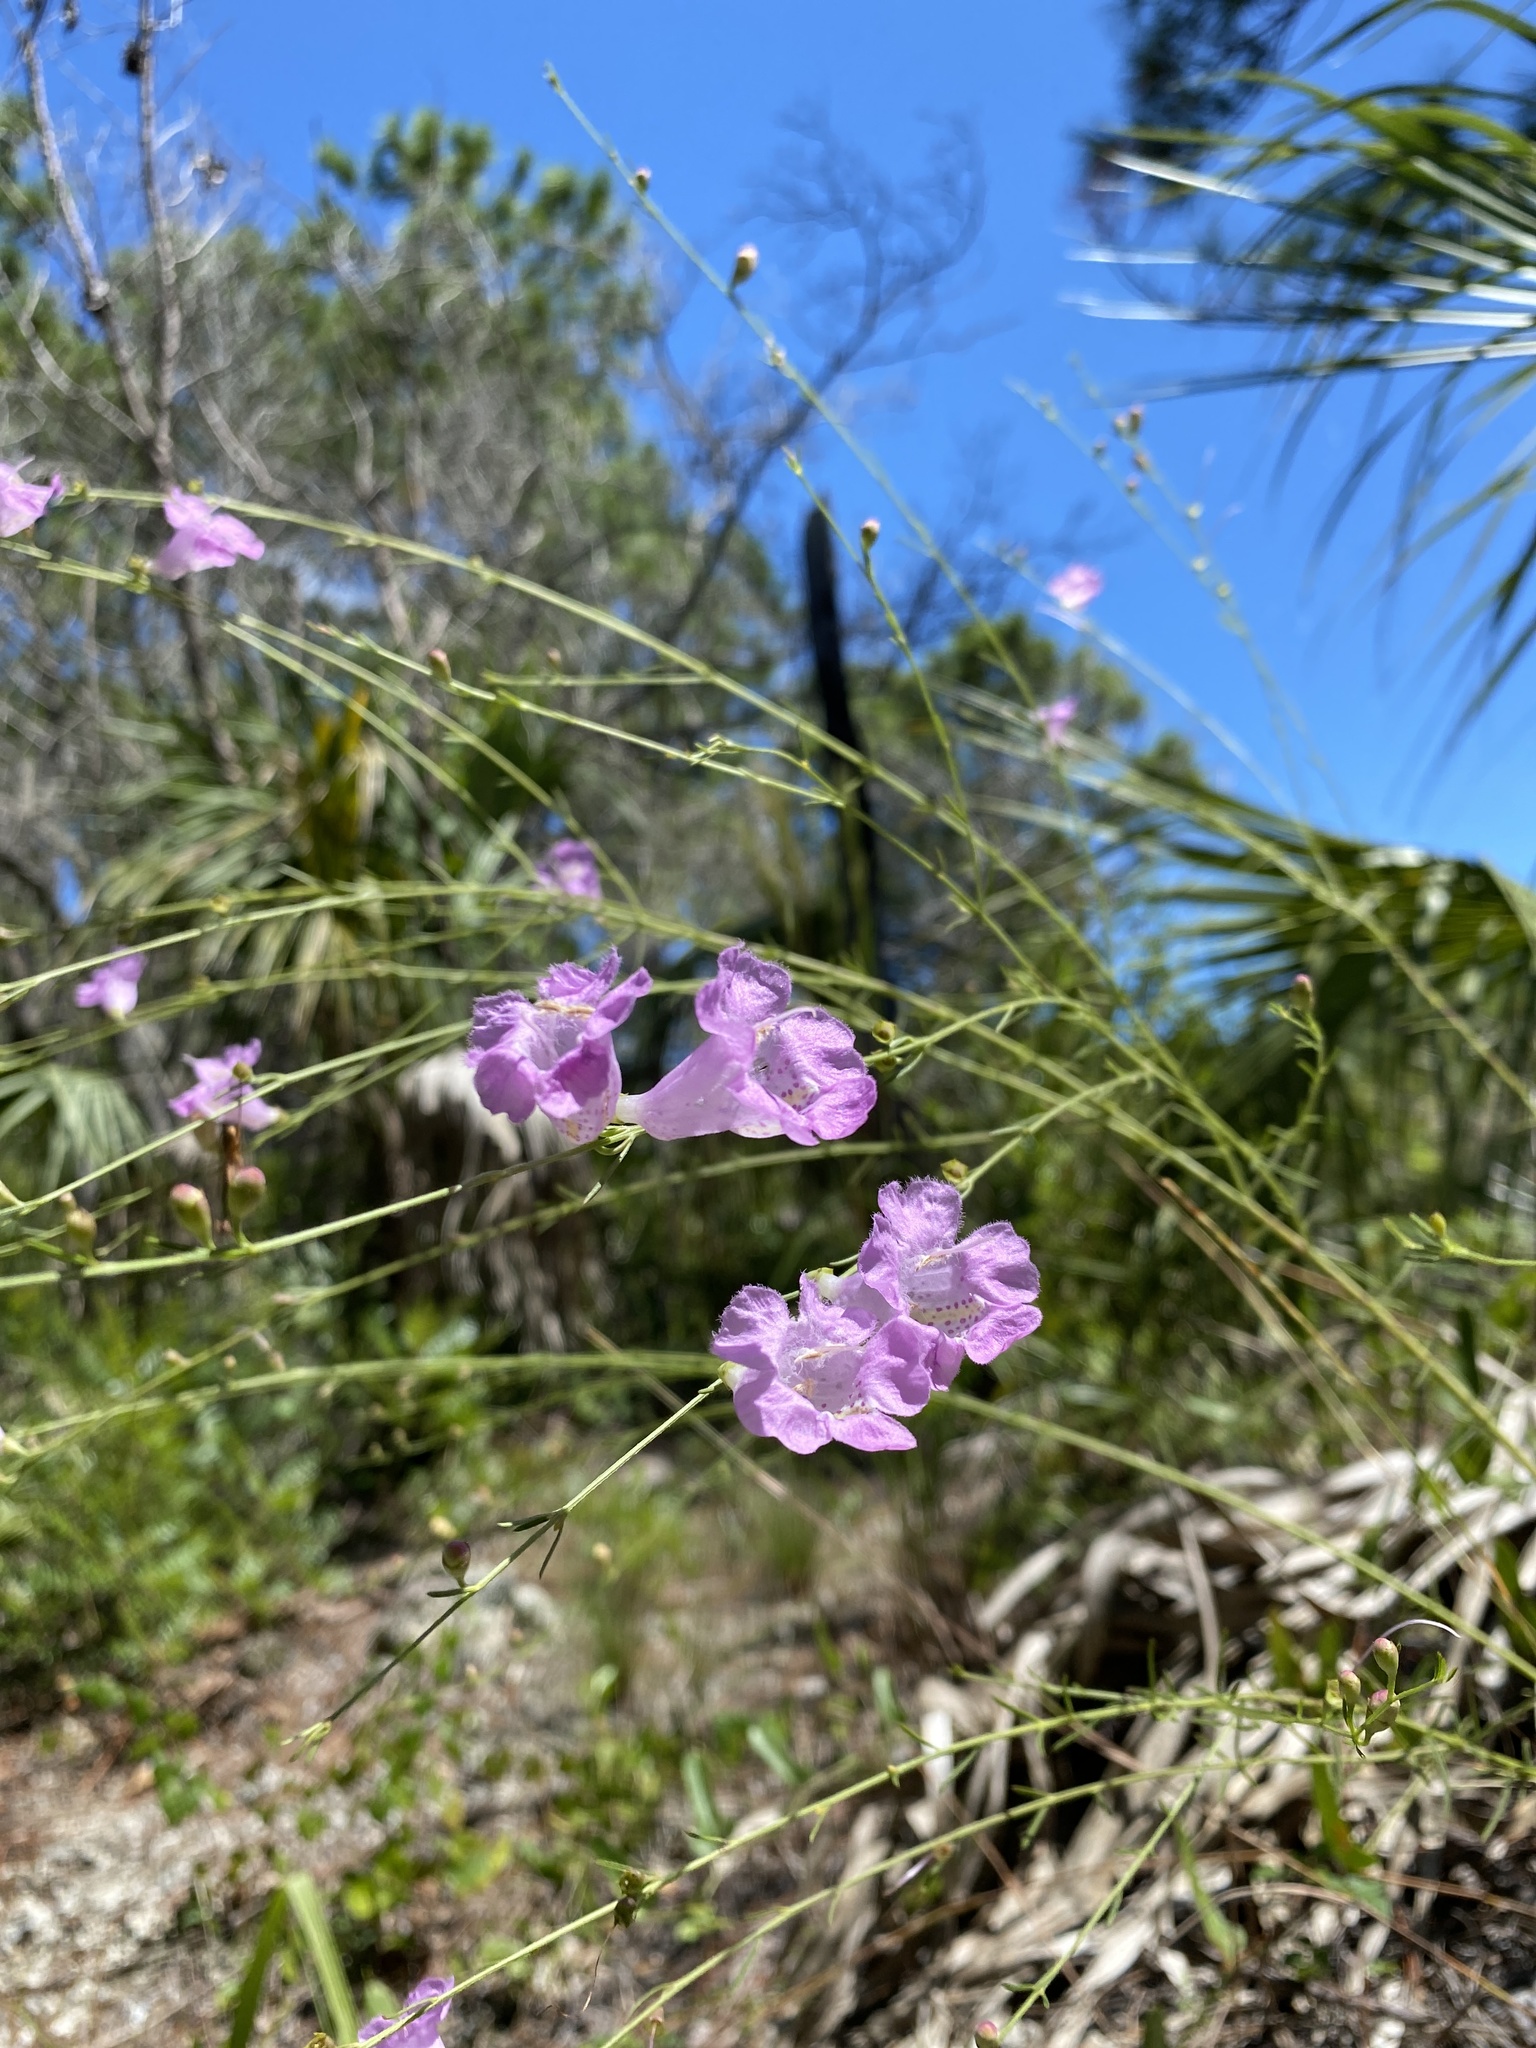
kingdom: Plantae
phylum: Tracheophyta
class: Magnoliopsida
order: Lamiales
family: Orobanchaceae
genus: Agalinis
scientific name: Agalinis fasciculata
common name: Beach false foxglove
